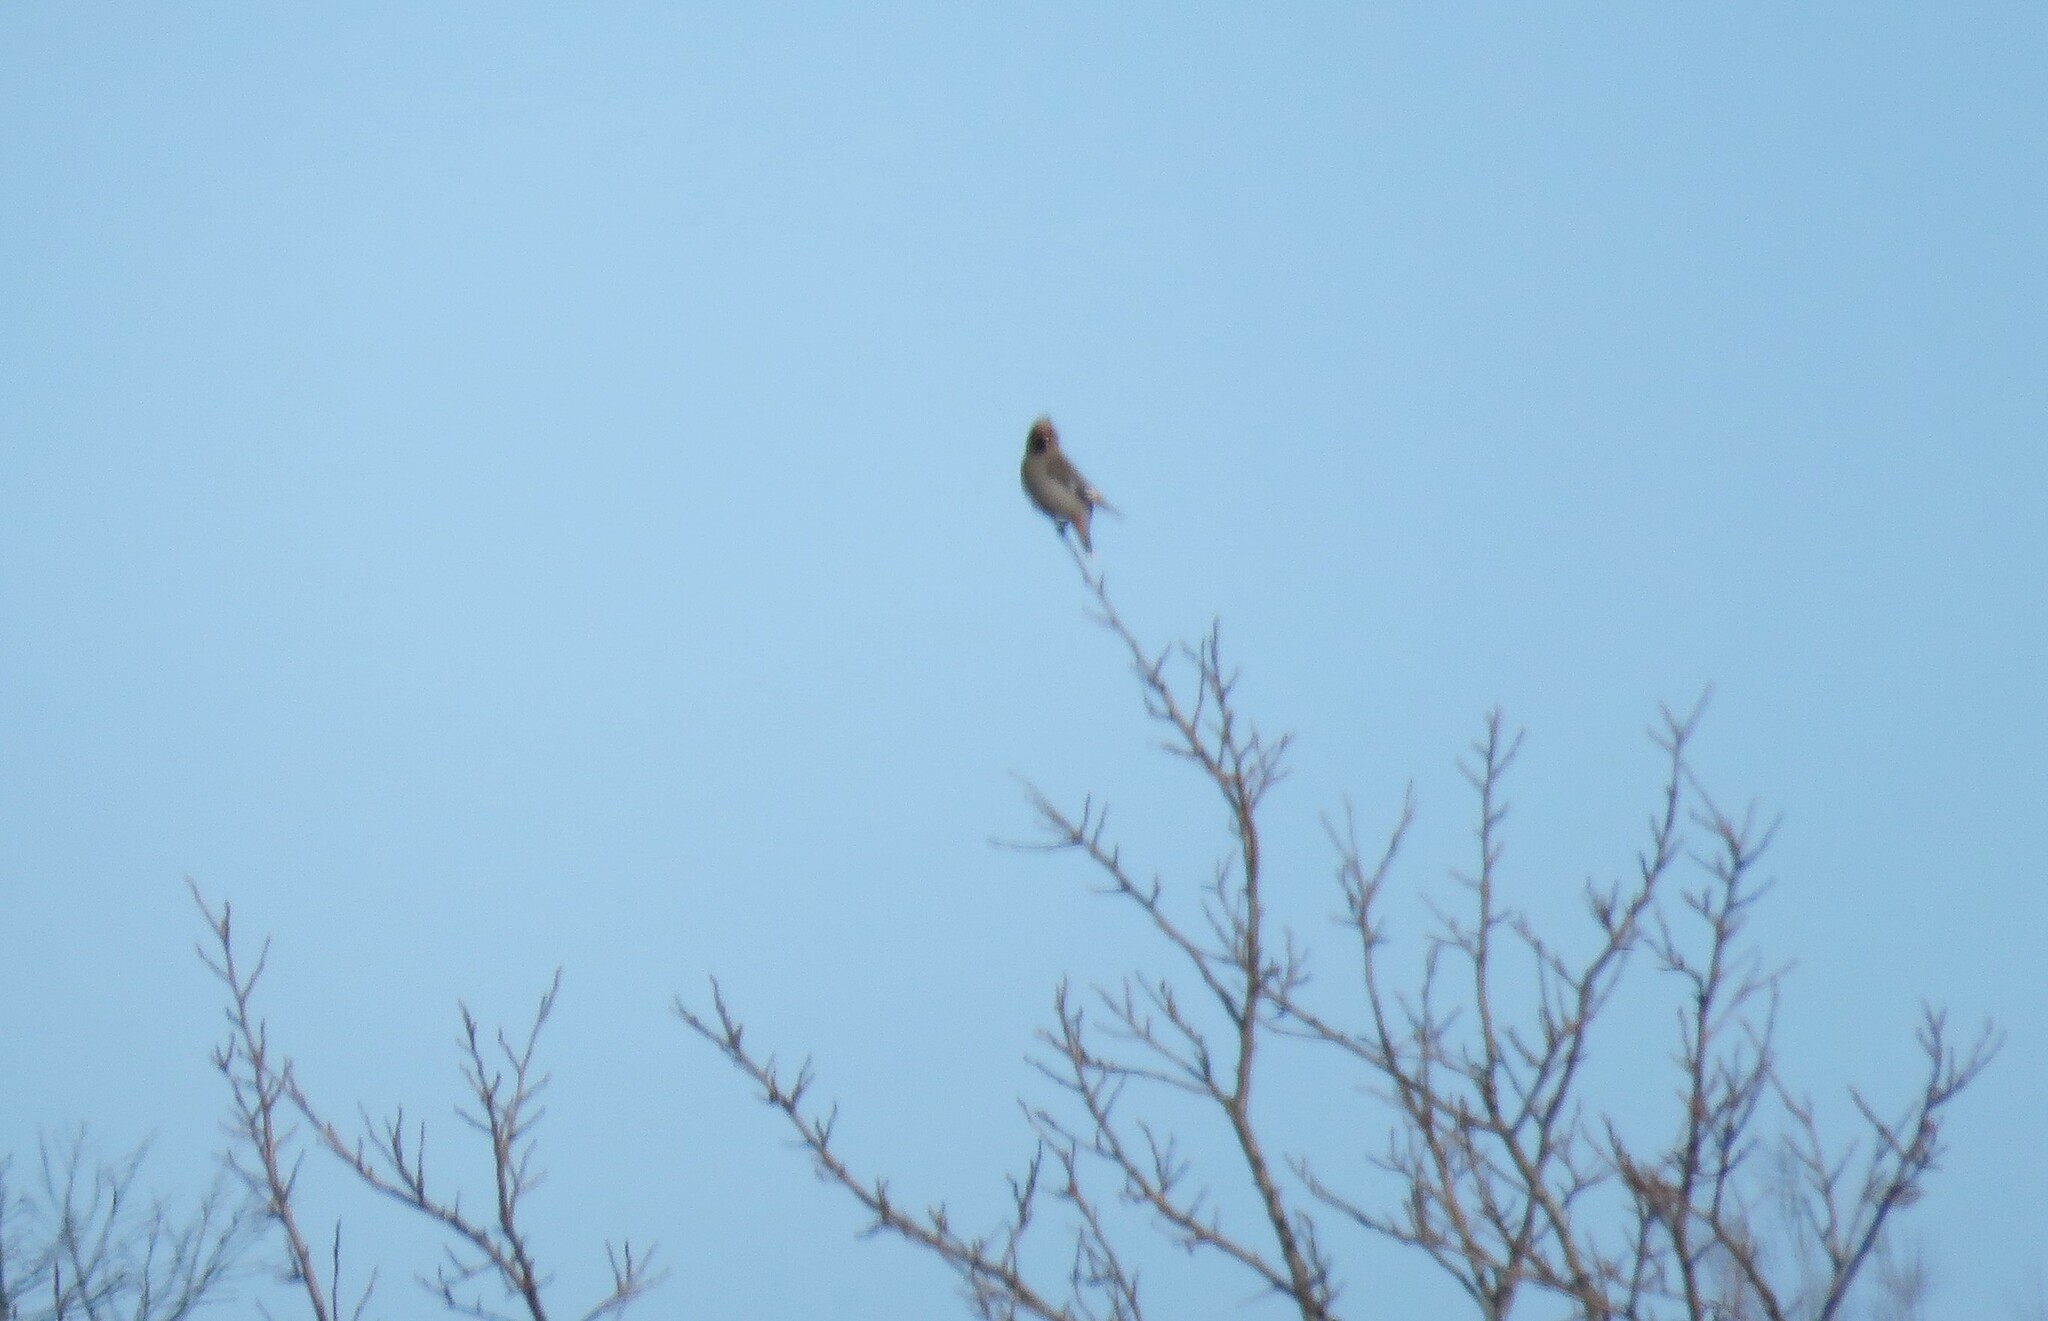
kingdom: Animalia
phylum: Chordata
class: Aves
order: Passeriformes
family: Bombycillidae
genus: Bombycilla
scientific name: Bombycilla garrulus
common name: Bohemian waxwing
